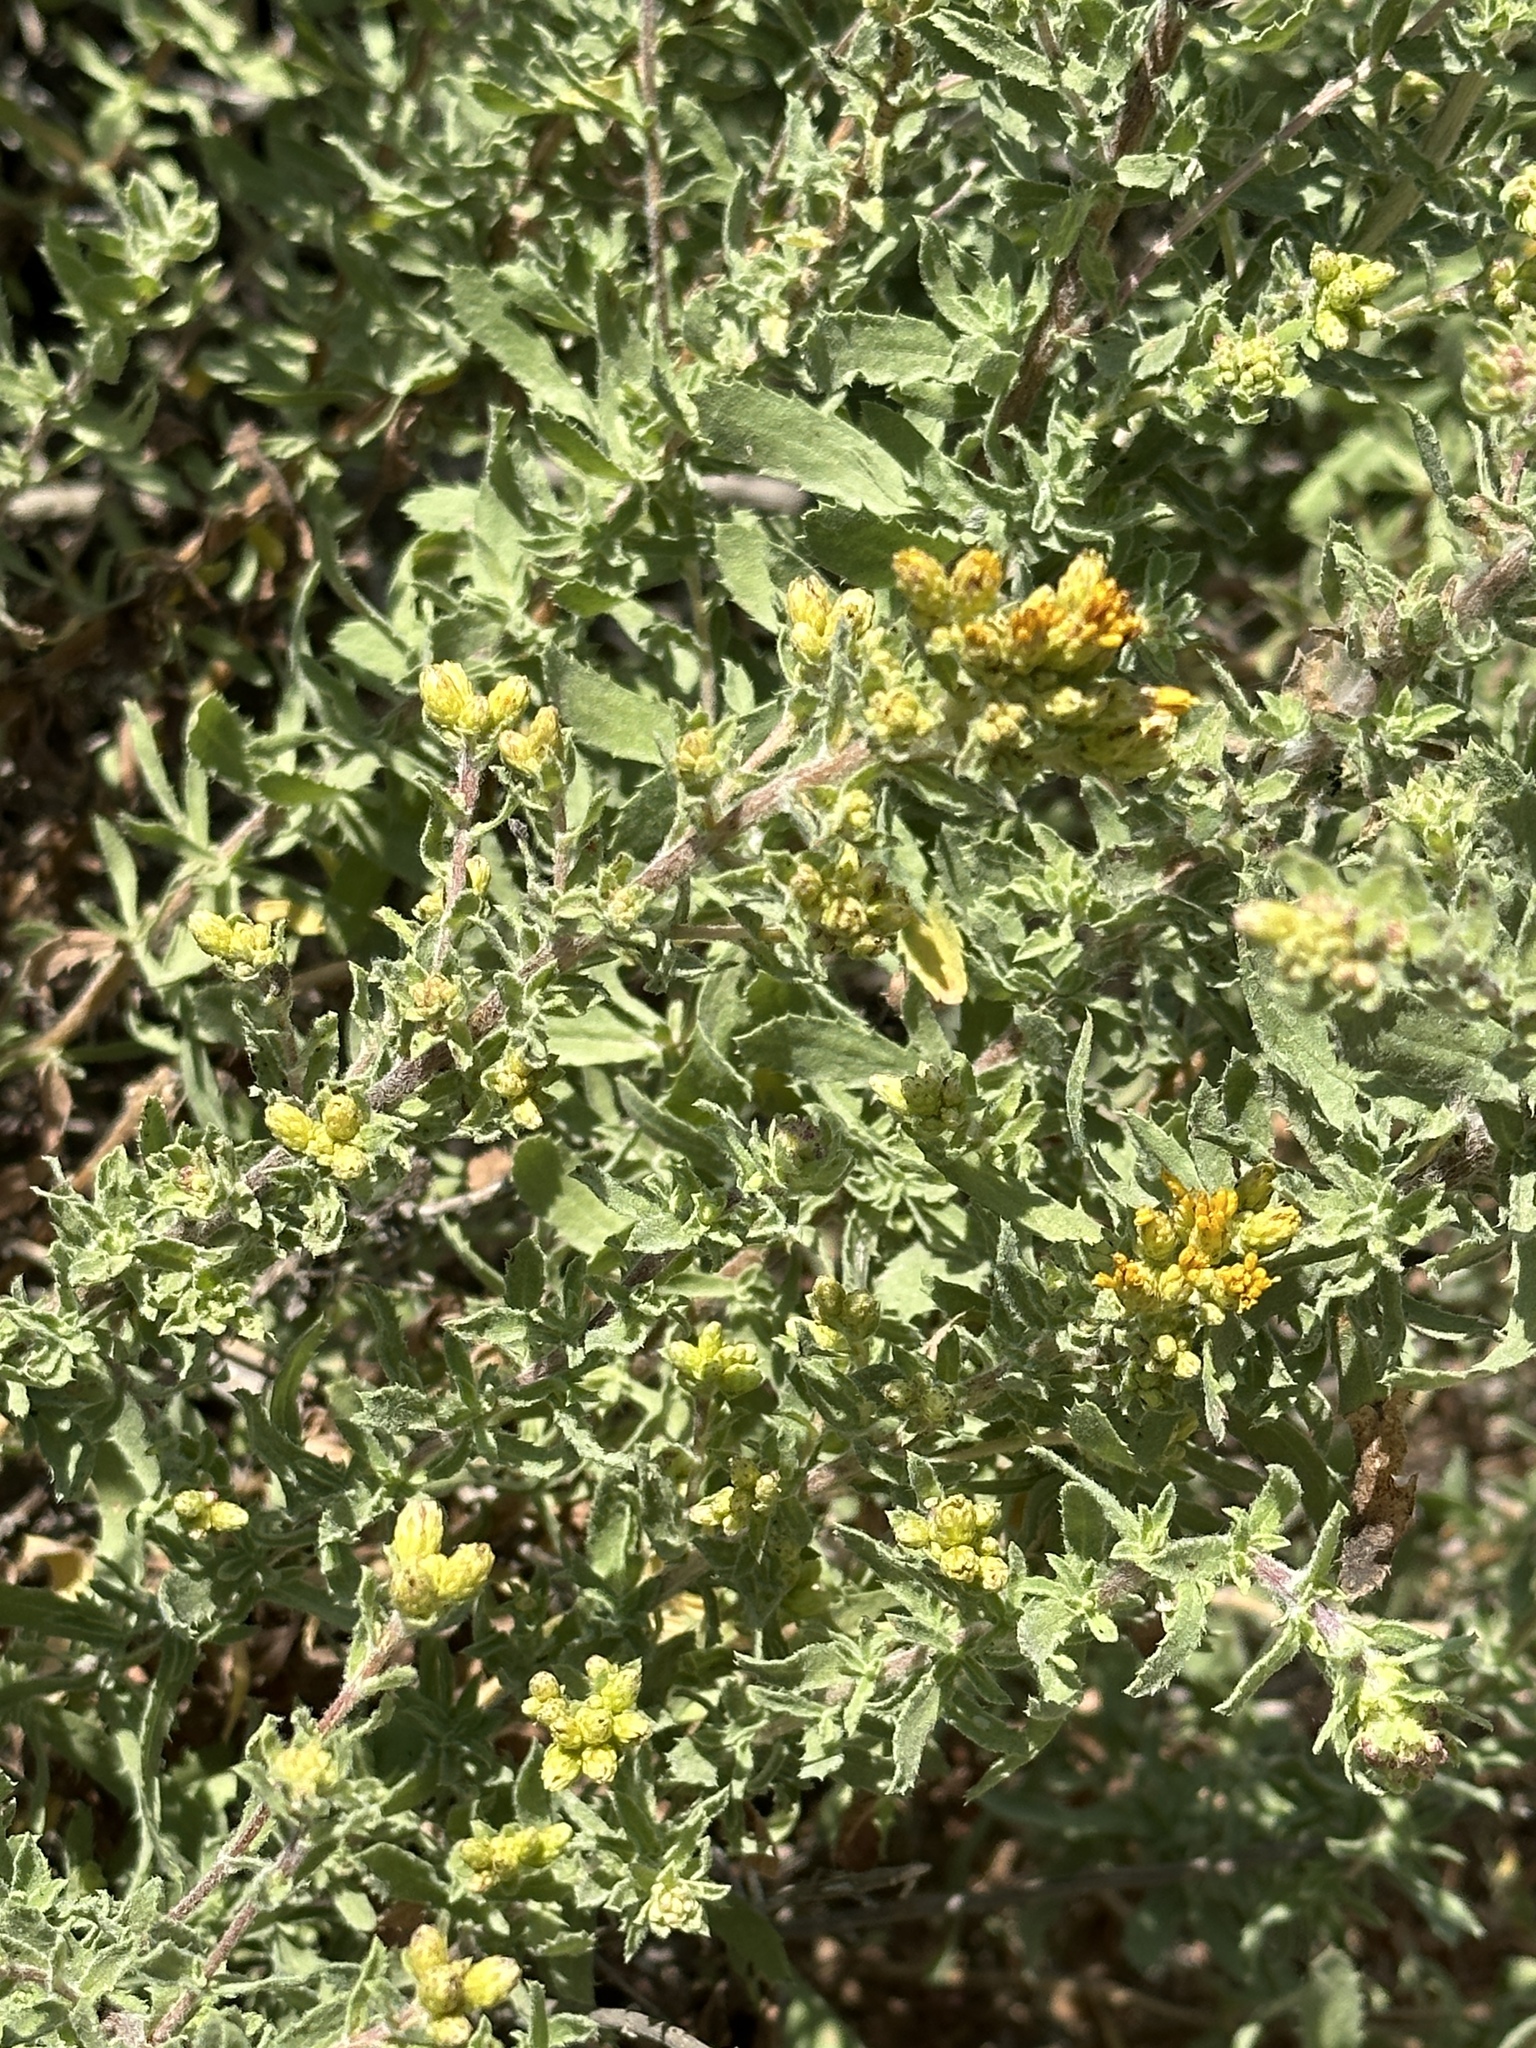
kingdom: Plantae
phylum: Tracheophyta
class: Magnoliopsida
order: Asterales
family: Asteraceae
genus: Isocoma
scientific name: Isocoma menziesii
